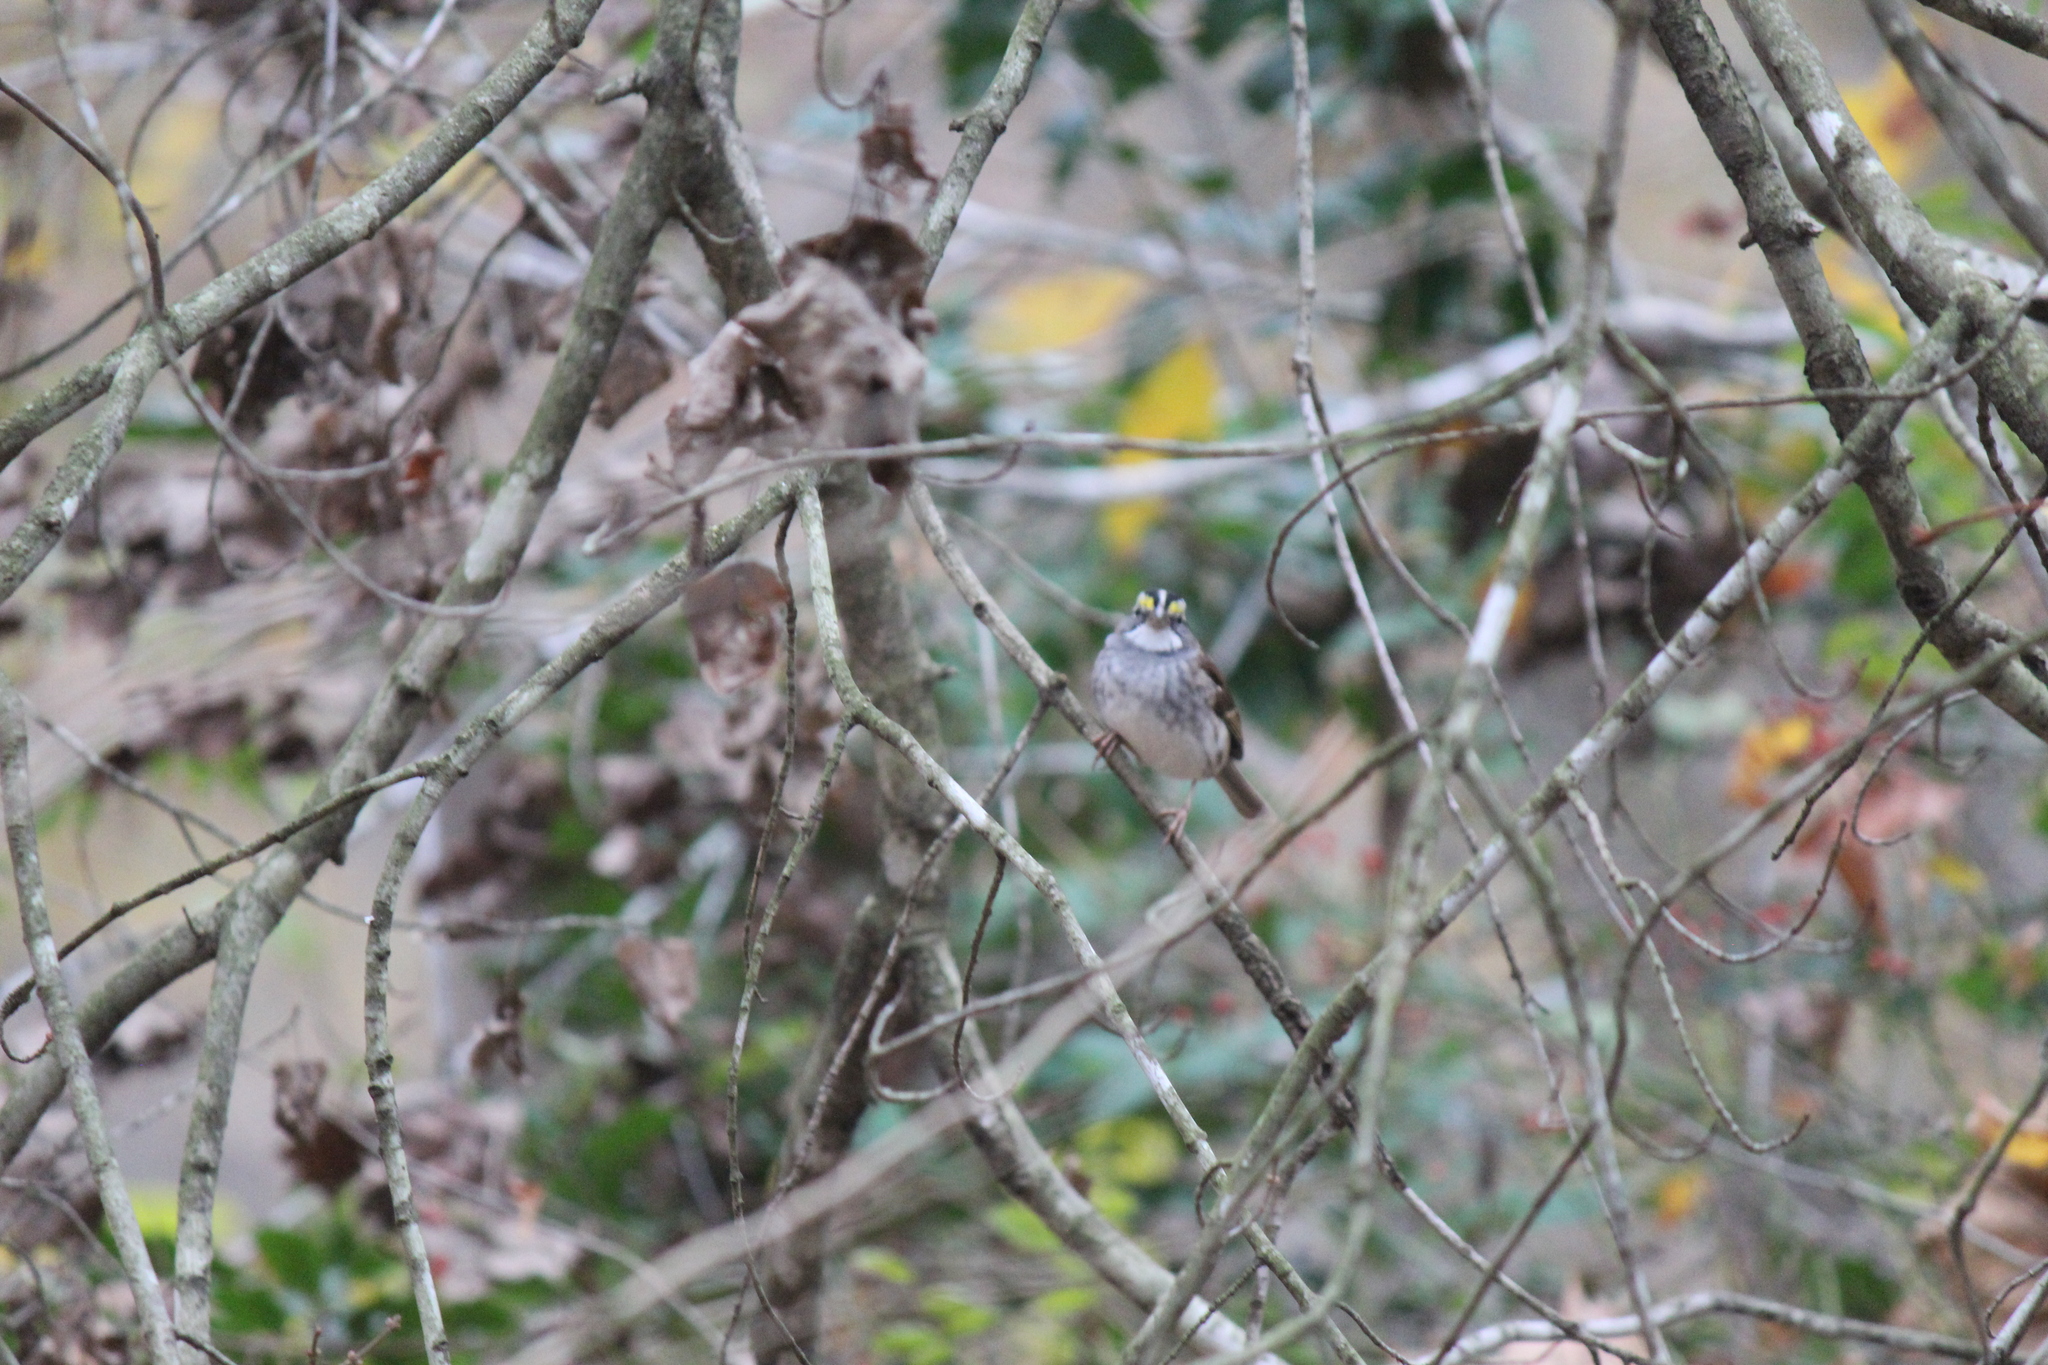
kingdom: Animalia
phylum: Chordata
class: Aves
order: Passeriformes
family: Passerellidae
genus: Zonotrichia
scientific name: Zonotrichia albicollis
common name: White-throated sparrow
